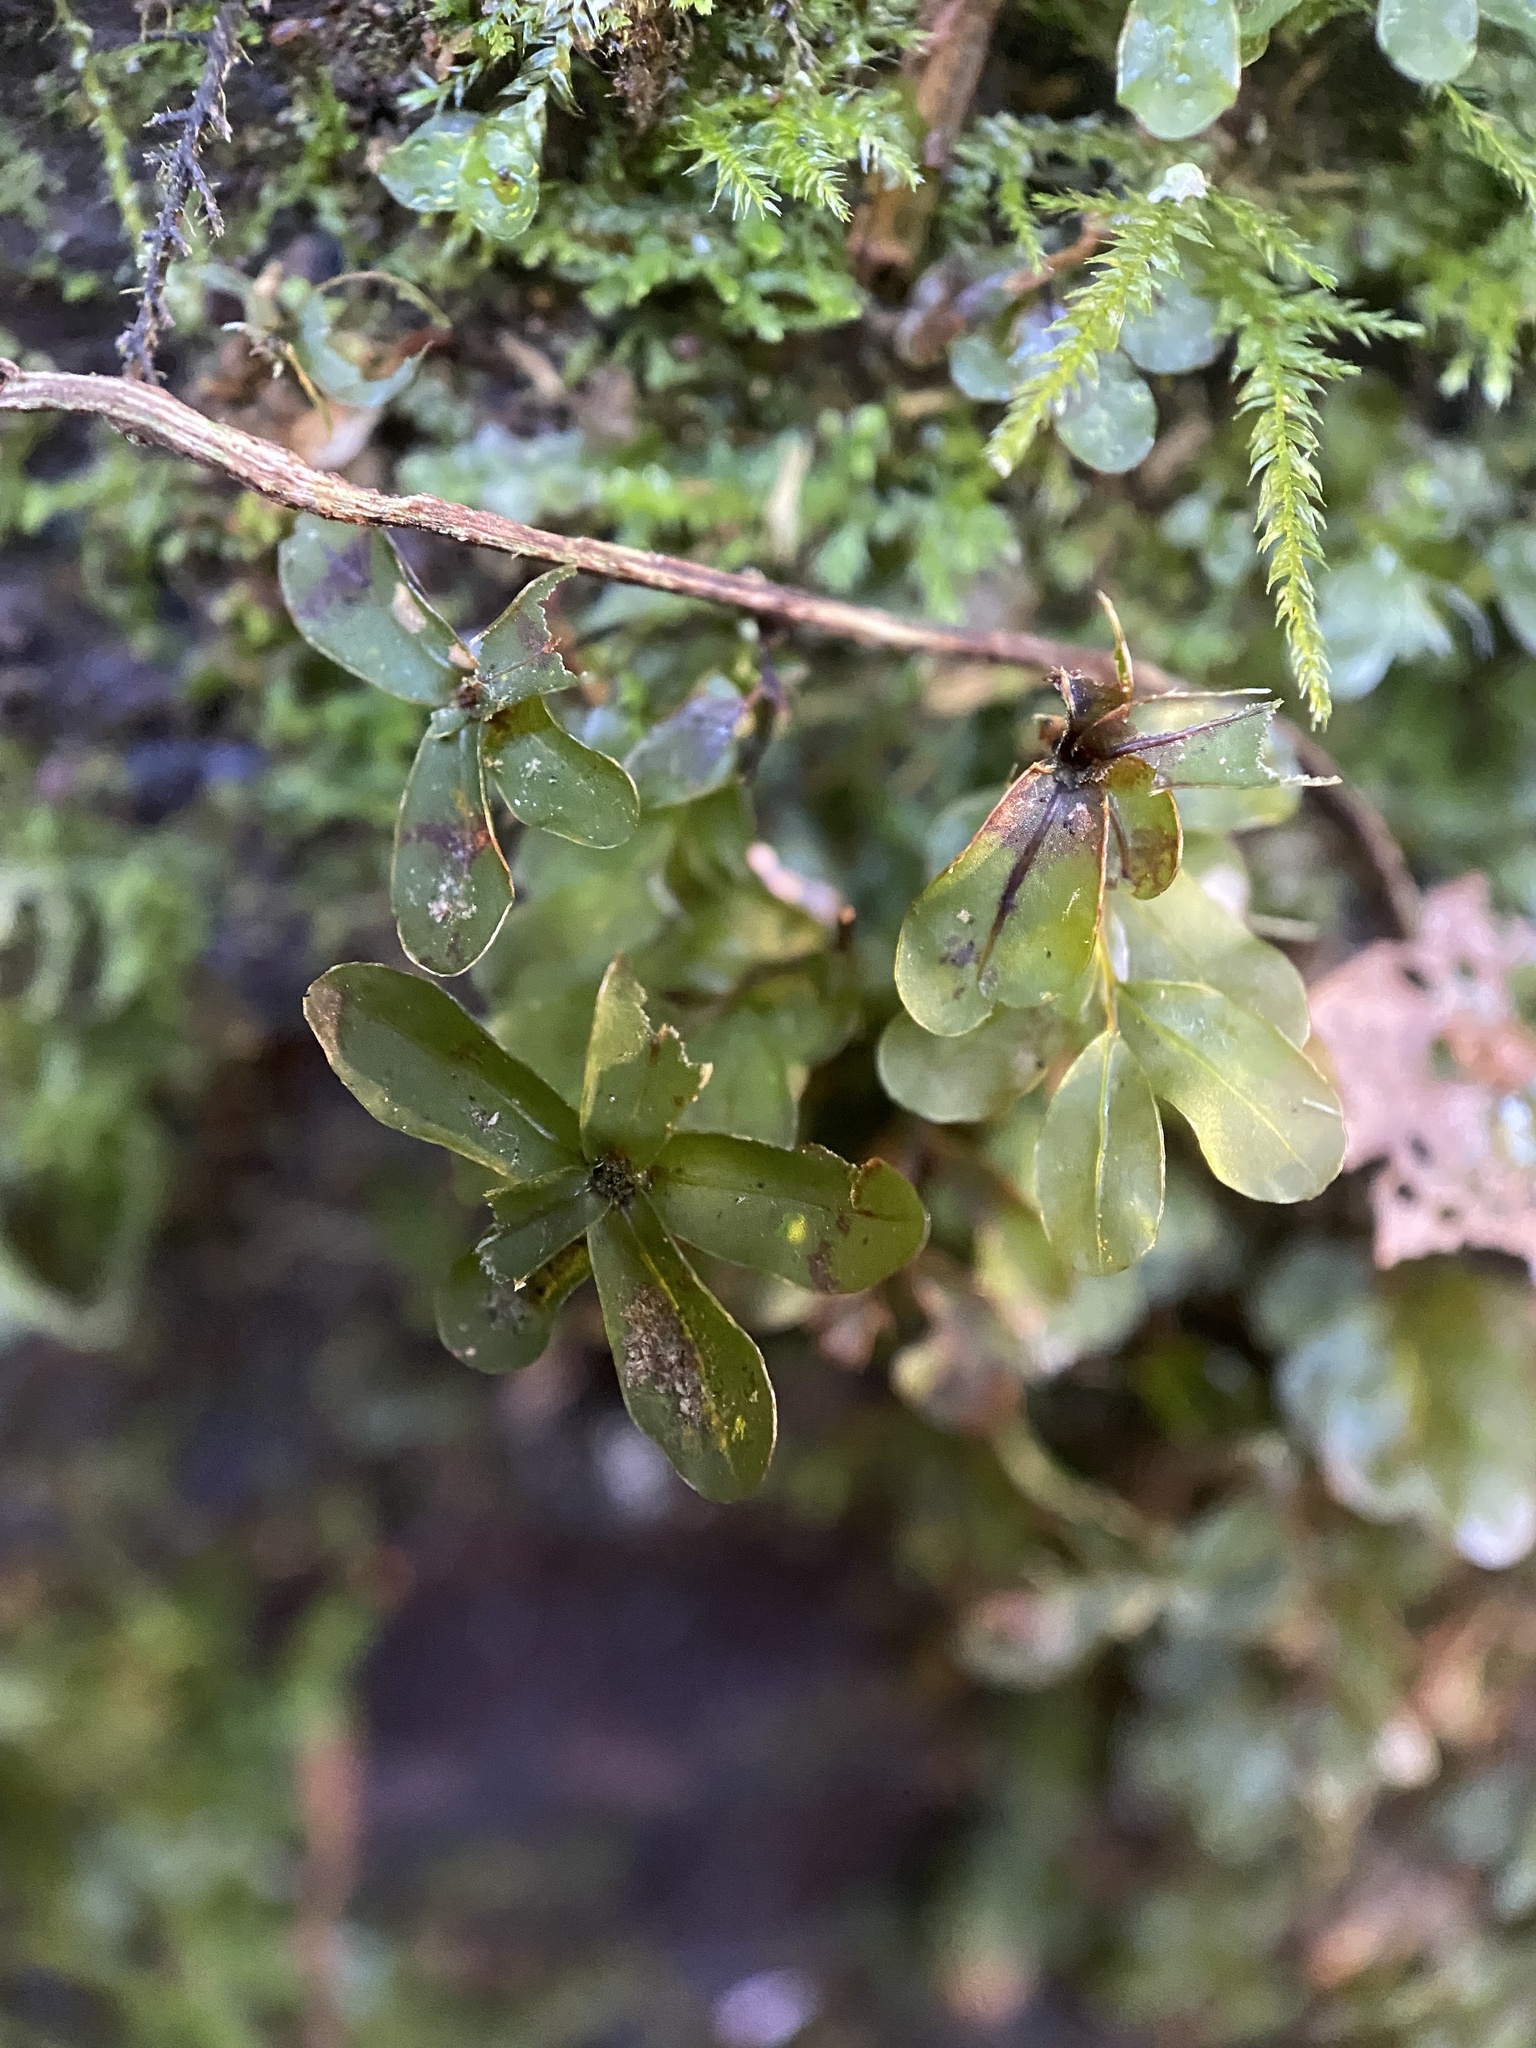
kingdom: Plantae
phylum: Bryophyta
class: Bryopsida
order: Bryales
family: Mniaceae
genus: Rhizomnium
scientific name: Rhizomnium glabrescens
